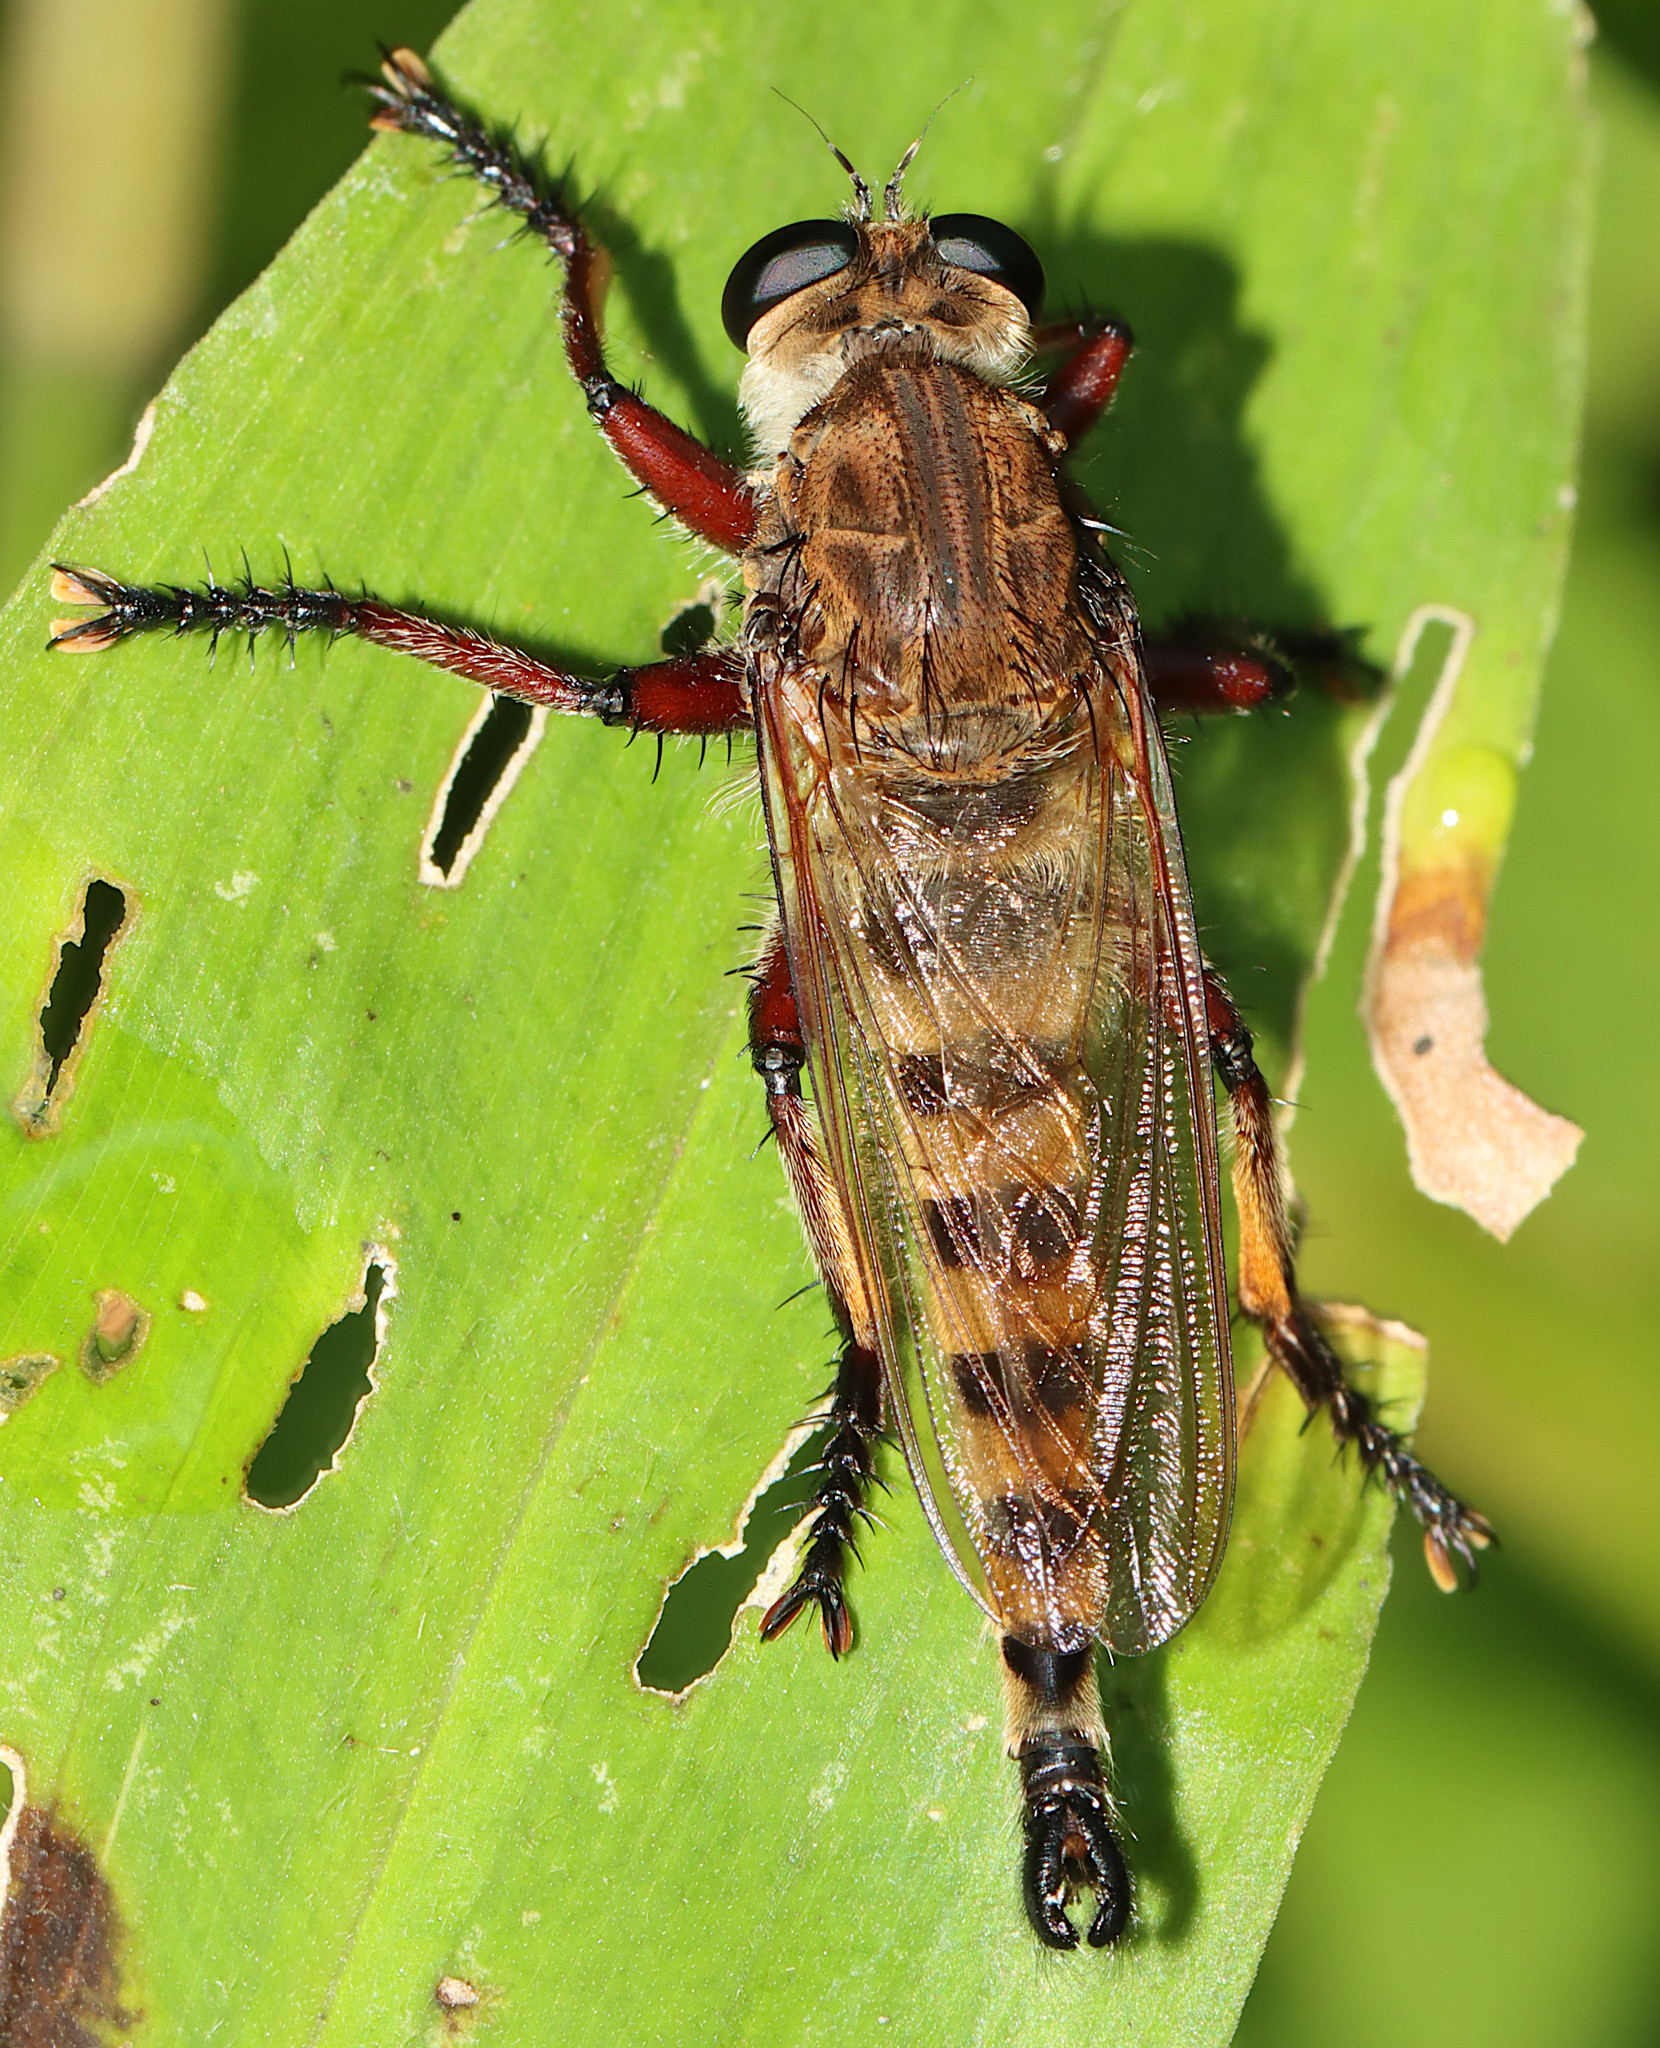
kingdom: Animalia
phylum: Arthropoda
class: Insecta
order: Diptera
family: Asilidae
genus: Promachus
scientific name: Promachus hinei
